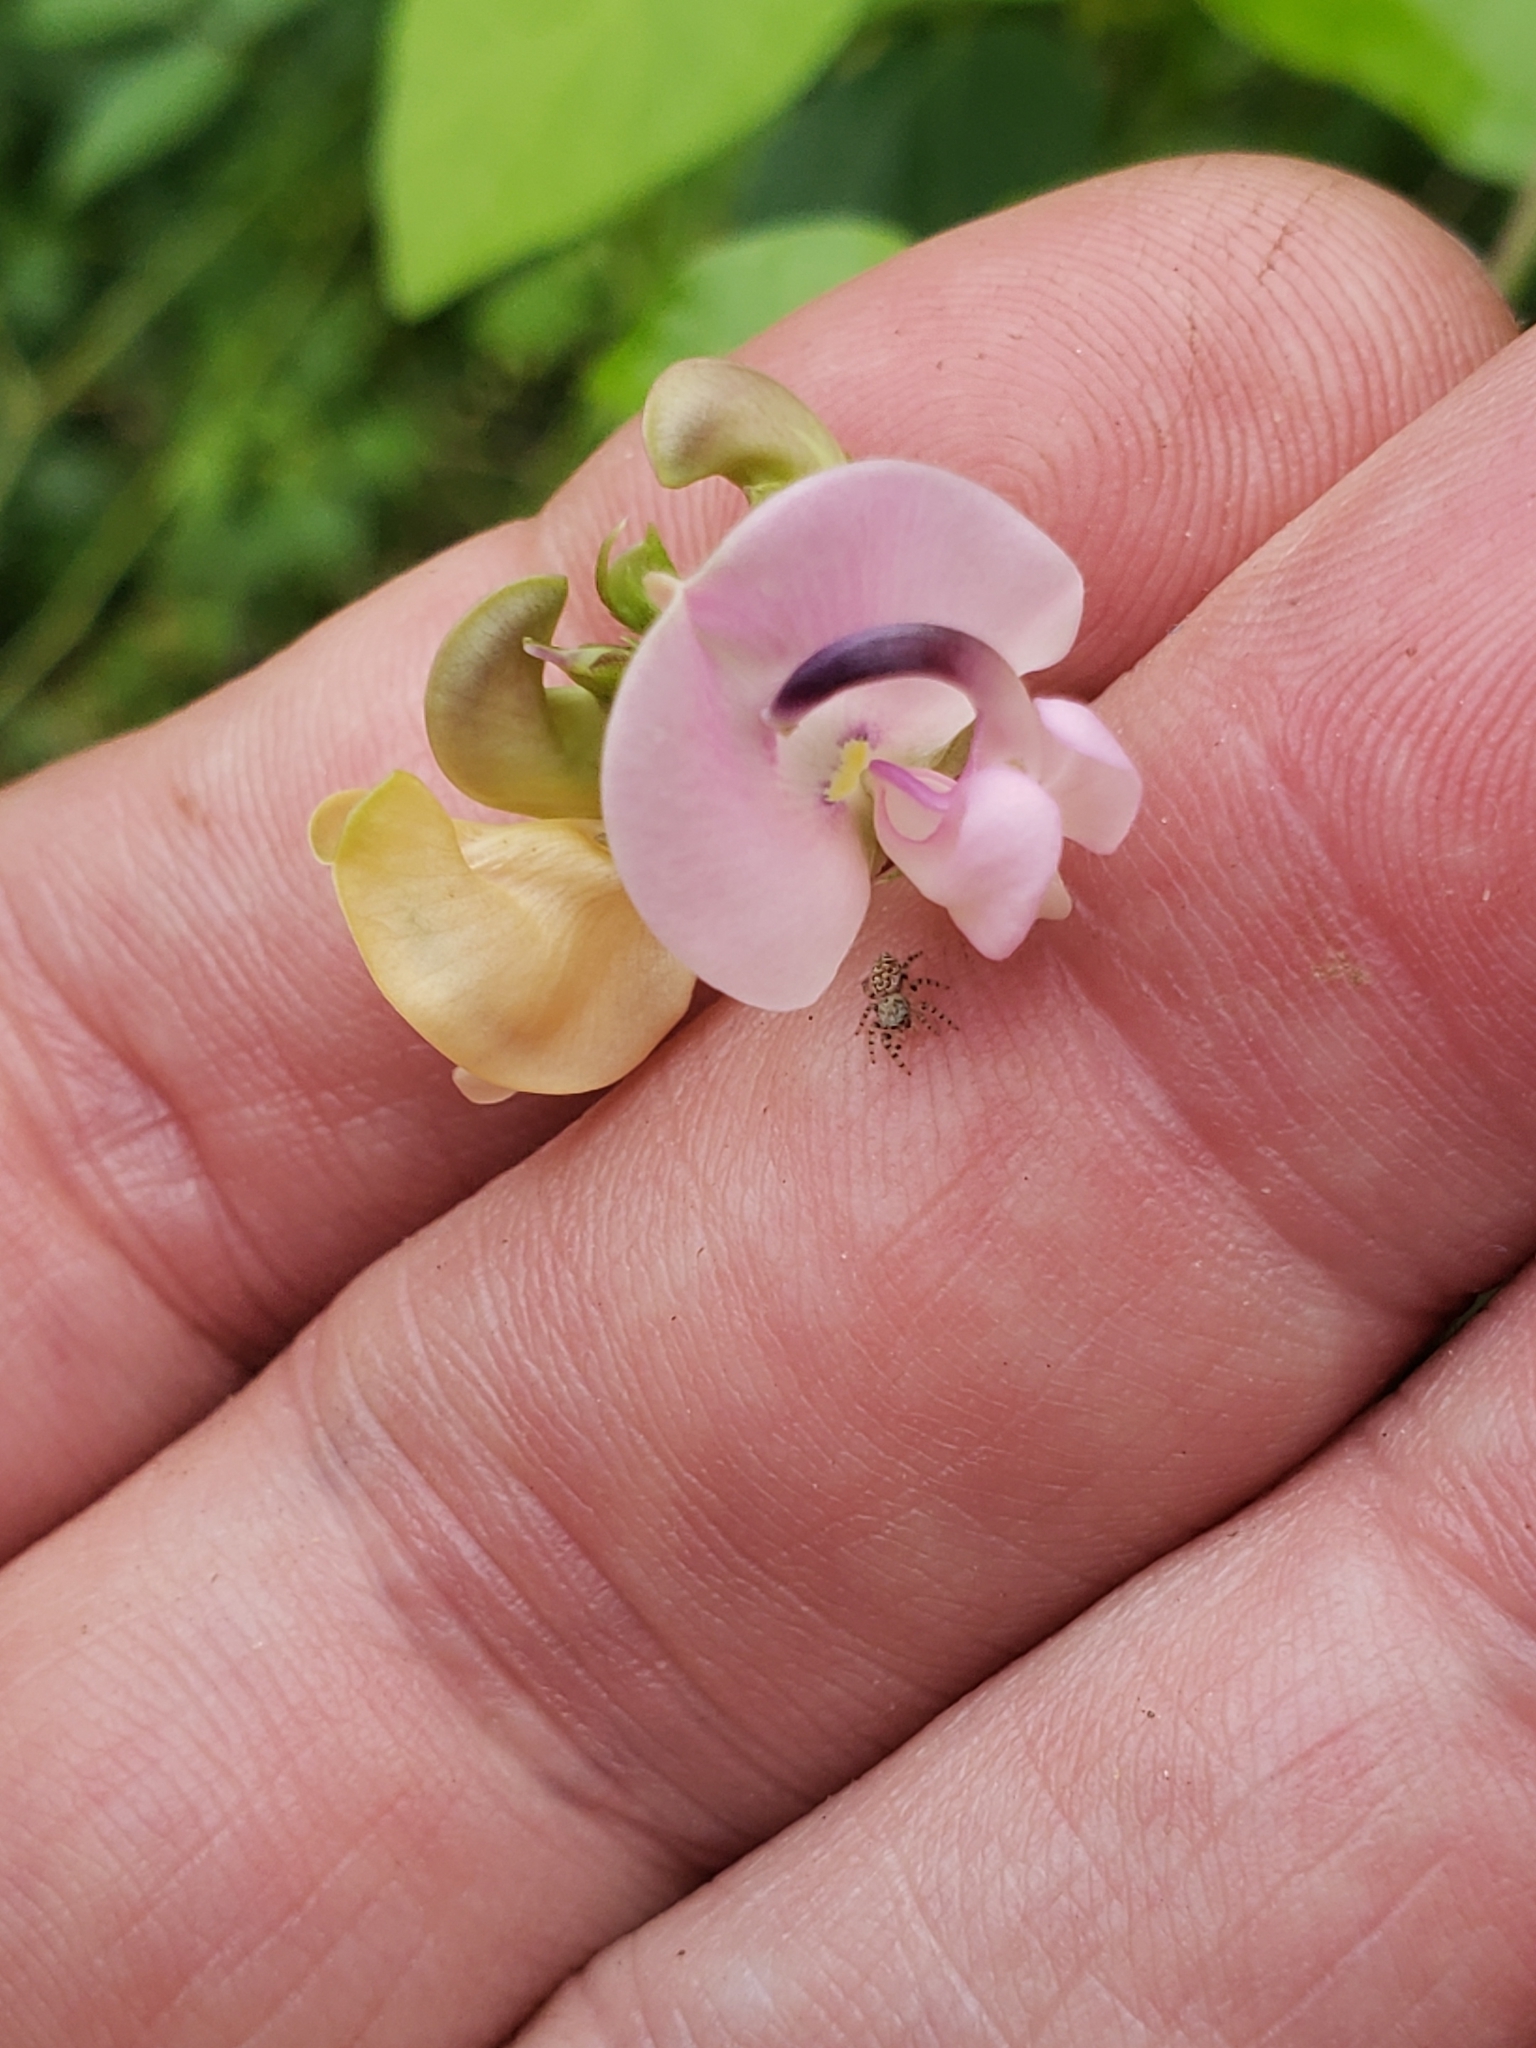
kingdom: Plantae
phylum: Tracheophyta
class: Magnoliopsida
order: Fabales
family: Fabaceae
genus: Strophostyles
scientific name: Strophostyles helvola
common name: Trailing wild bean
